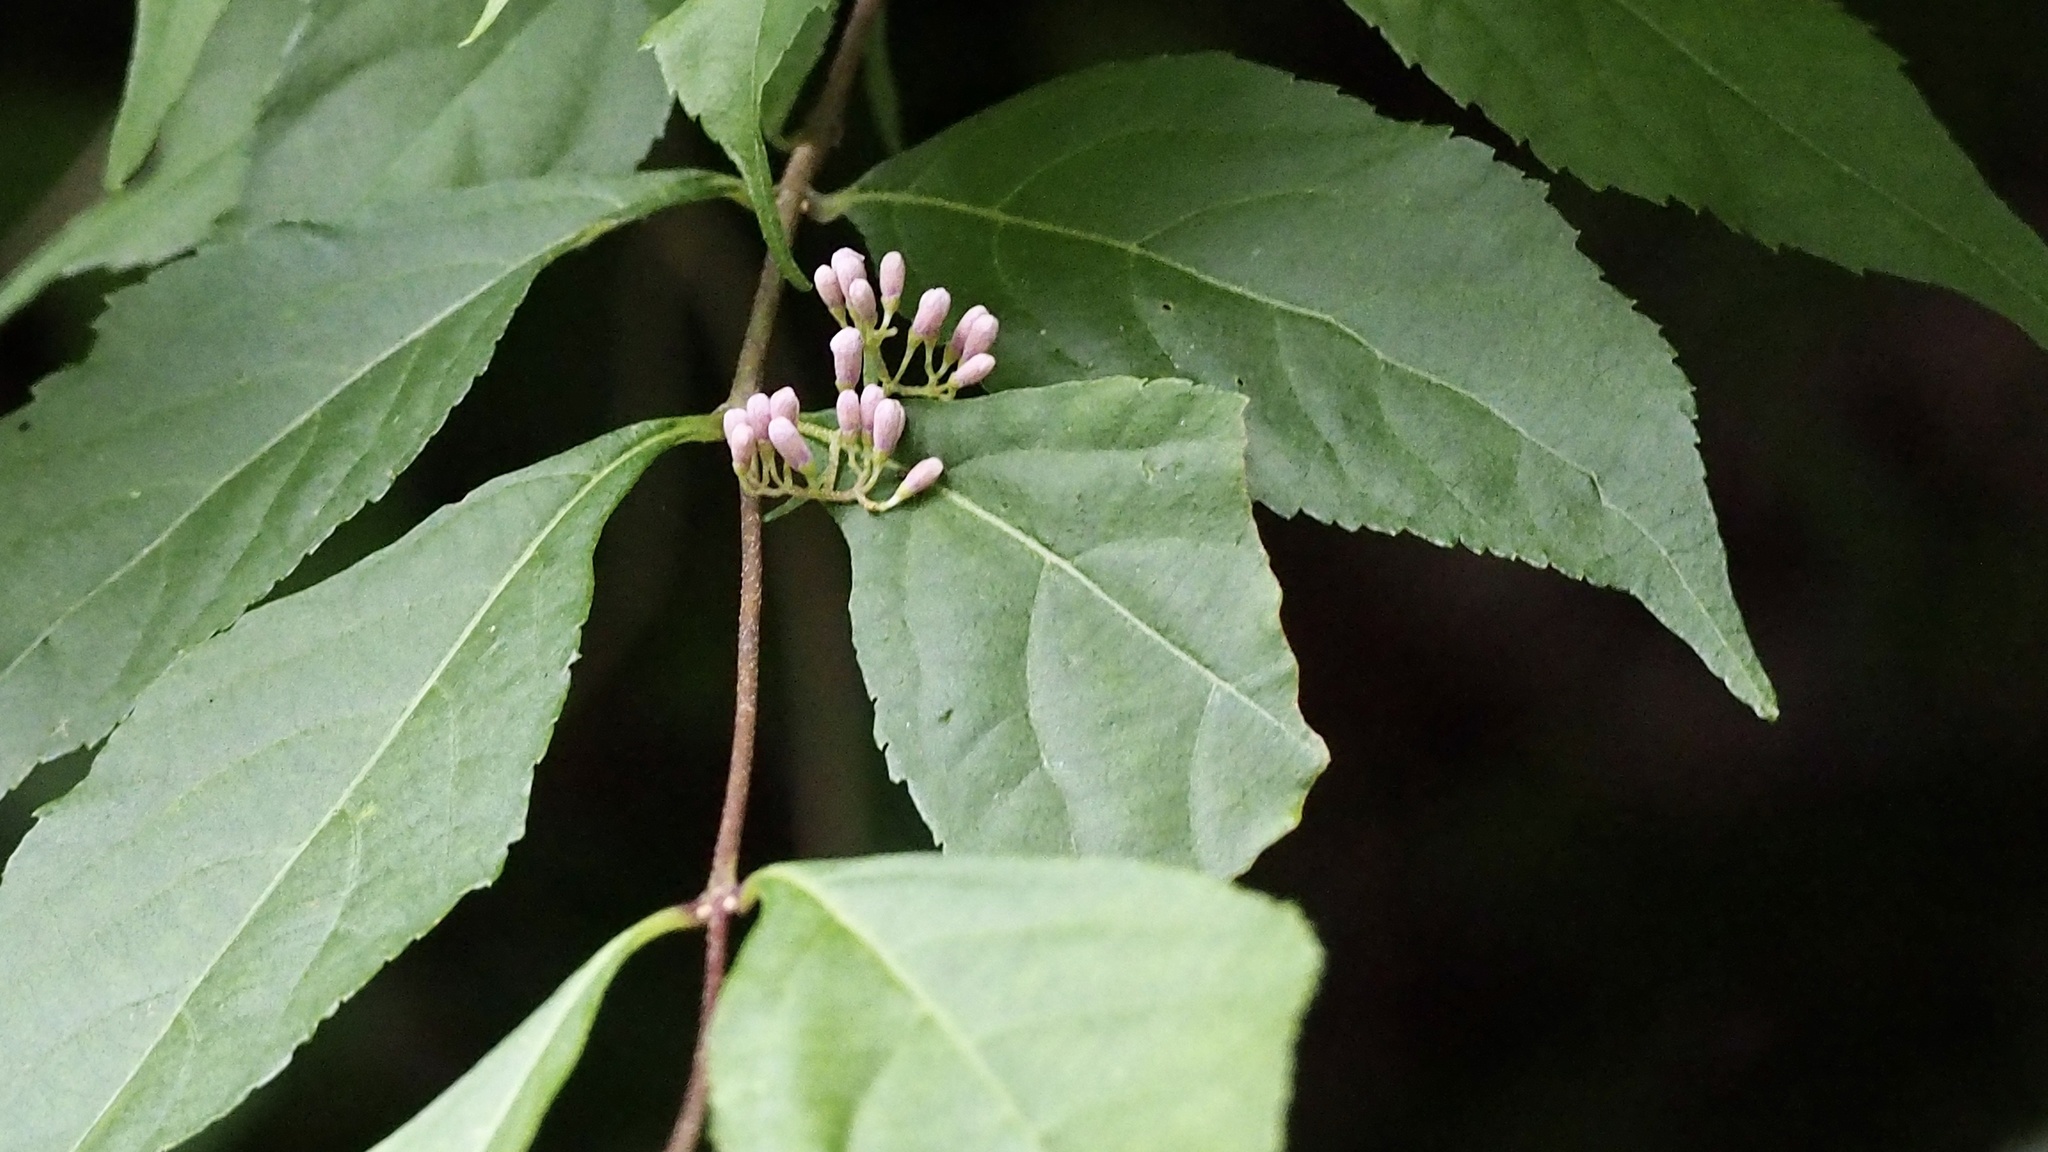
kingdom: Plantae
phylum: Tracheophyta
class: Magnoliopsida
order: Lamiales
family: Lamiaceae
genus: Callicarpa
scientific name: Callicarpa dichotoma
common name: Purple beauty-berry
